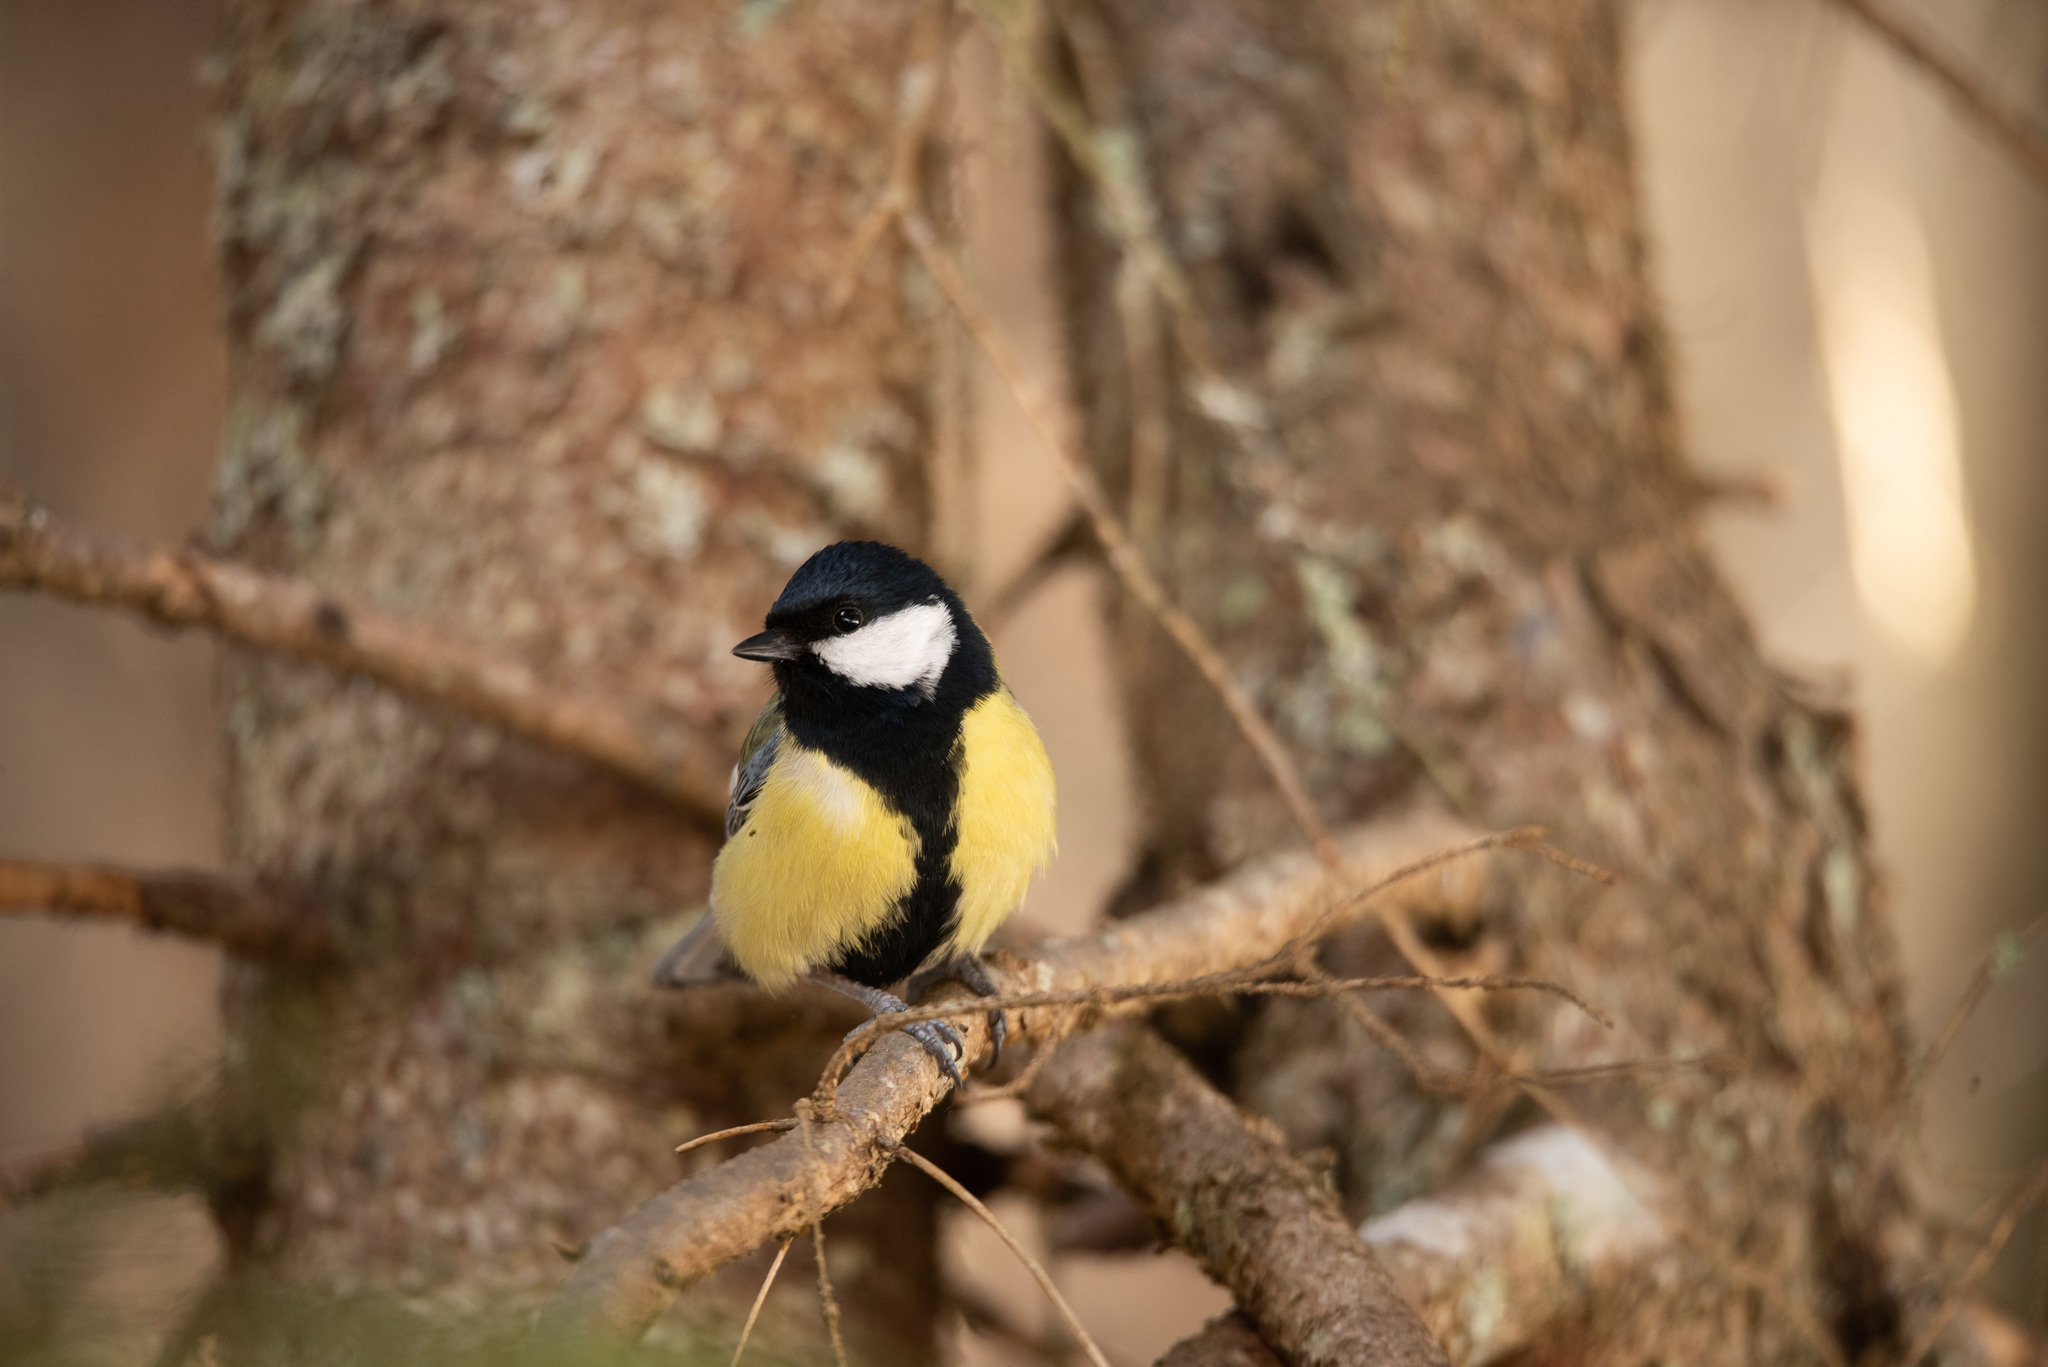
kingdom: Animalia
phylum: Chordata
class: Aves
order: Passeriformes
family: Paridae
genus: Parus
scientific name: Parus major
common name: Great tit
